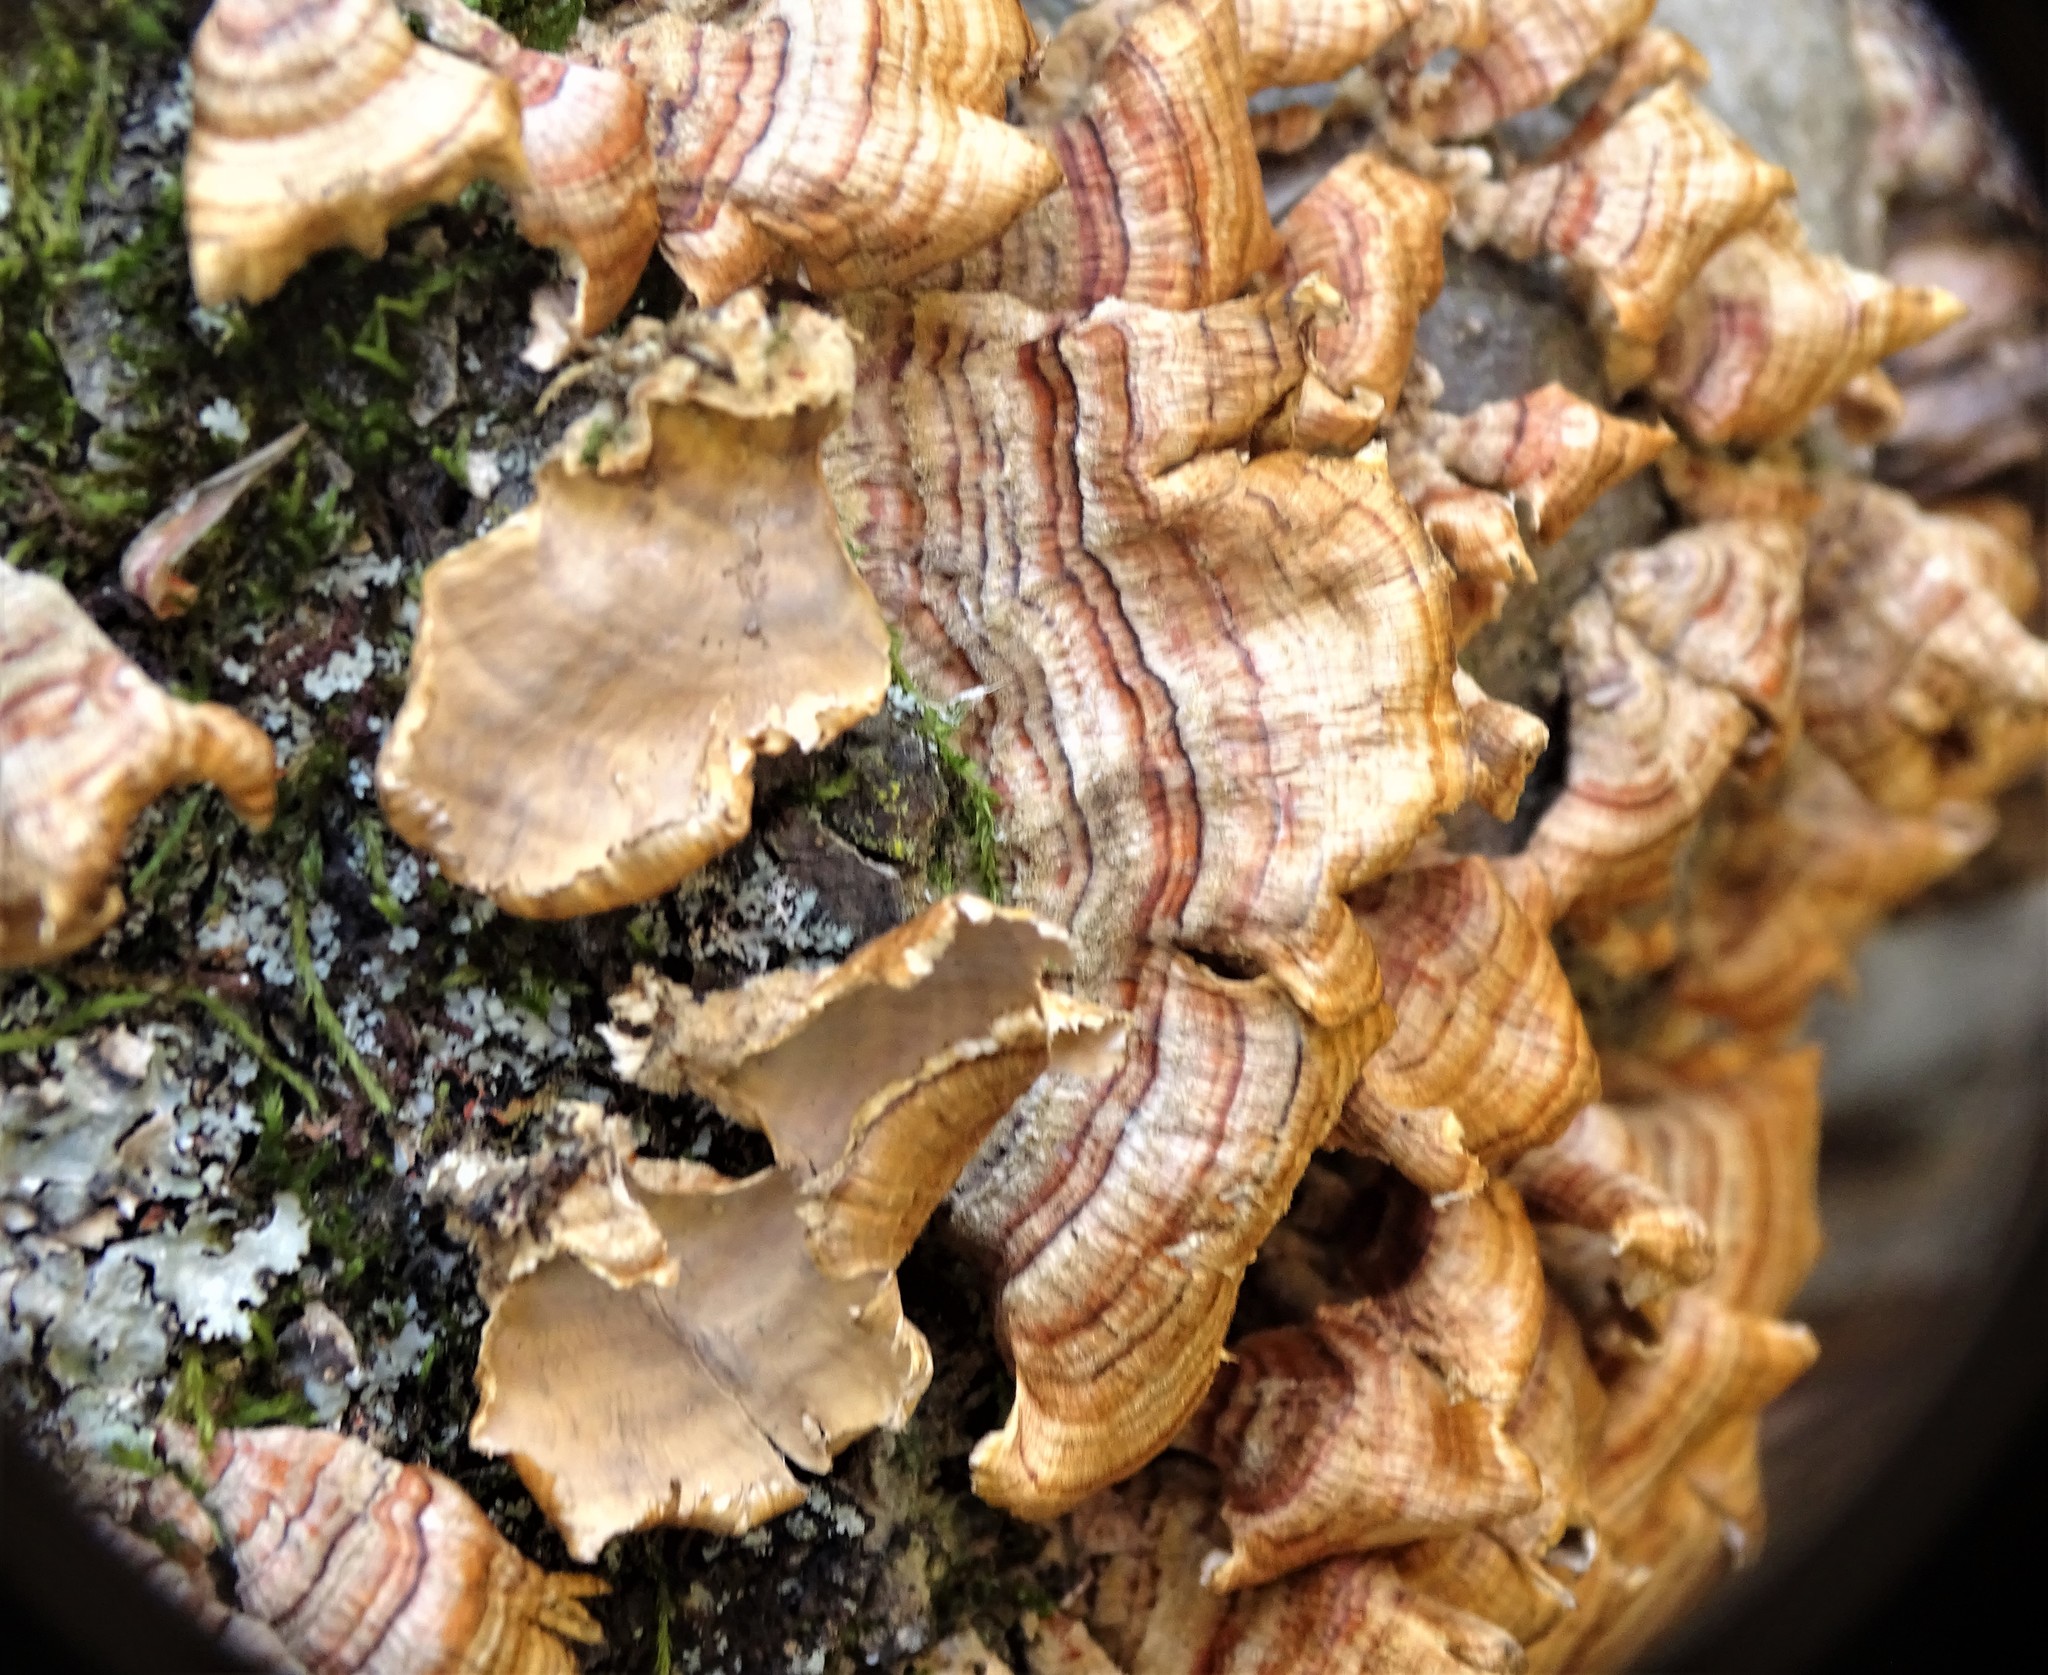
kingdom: Fungi
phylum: Basidiomycota
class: Agaricomycetes
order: Russulales
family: Stereaceae
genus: Stereum
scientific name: Stereum complicatum
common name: Crowded parchment
